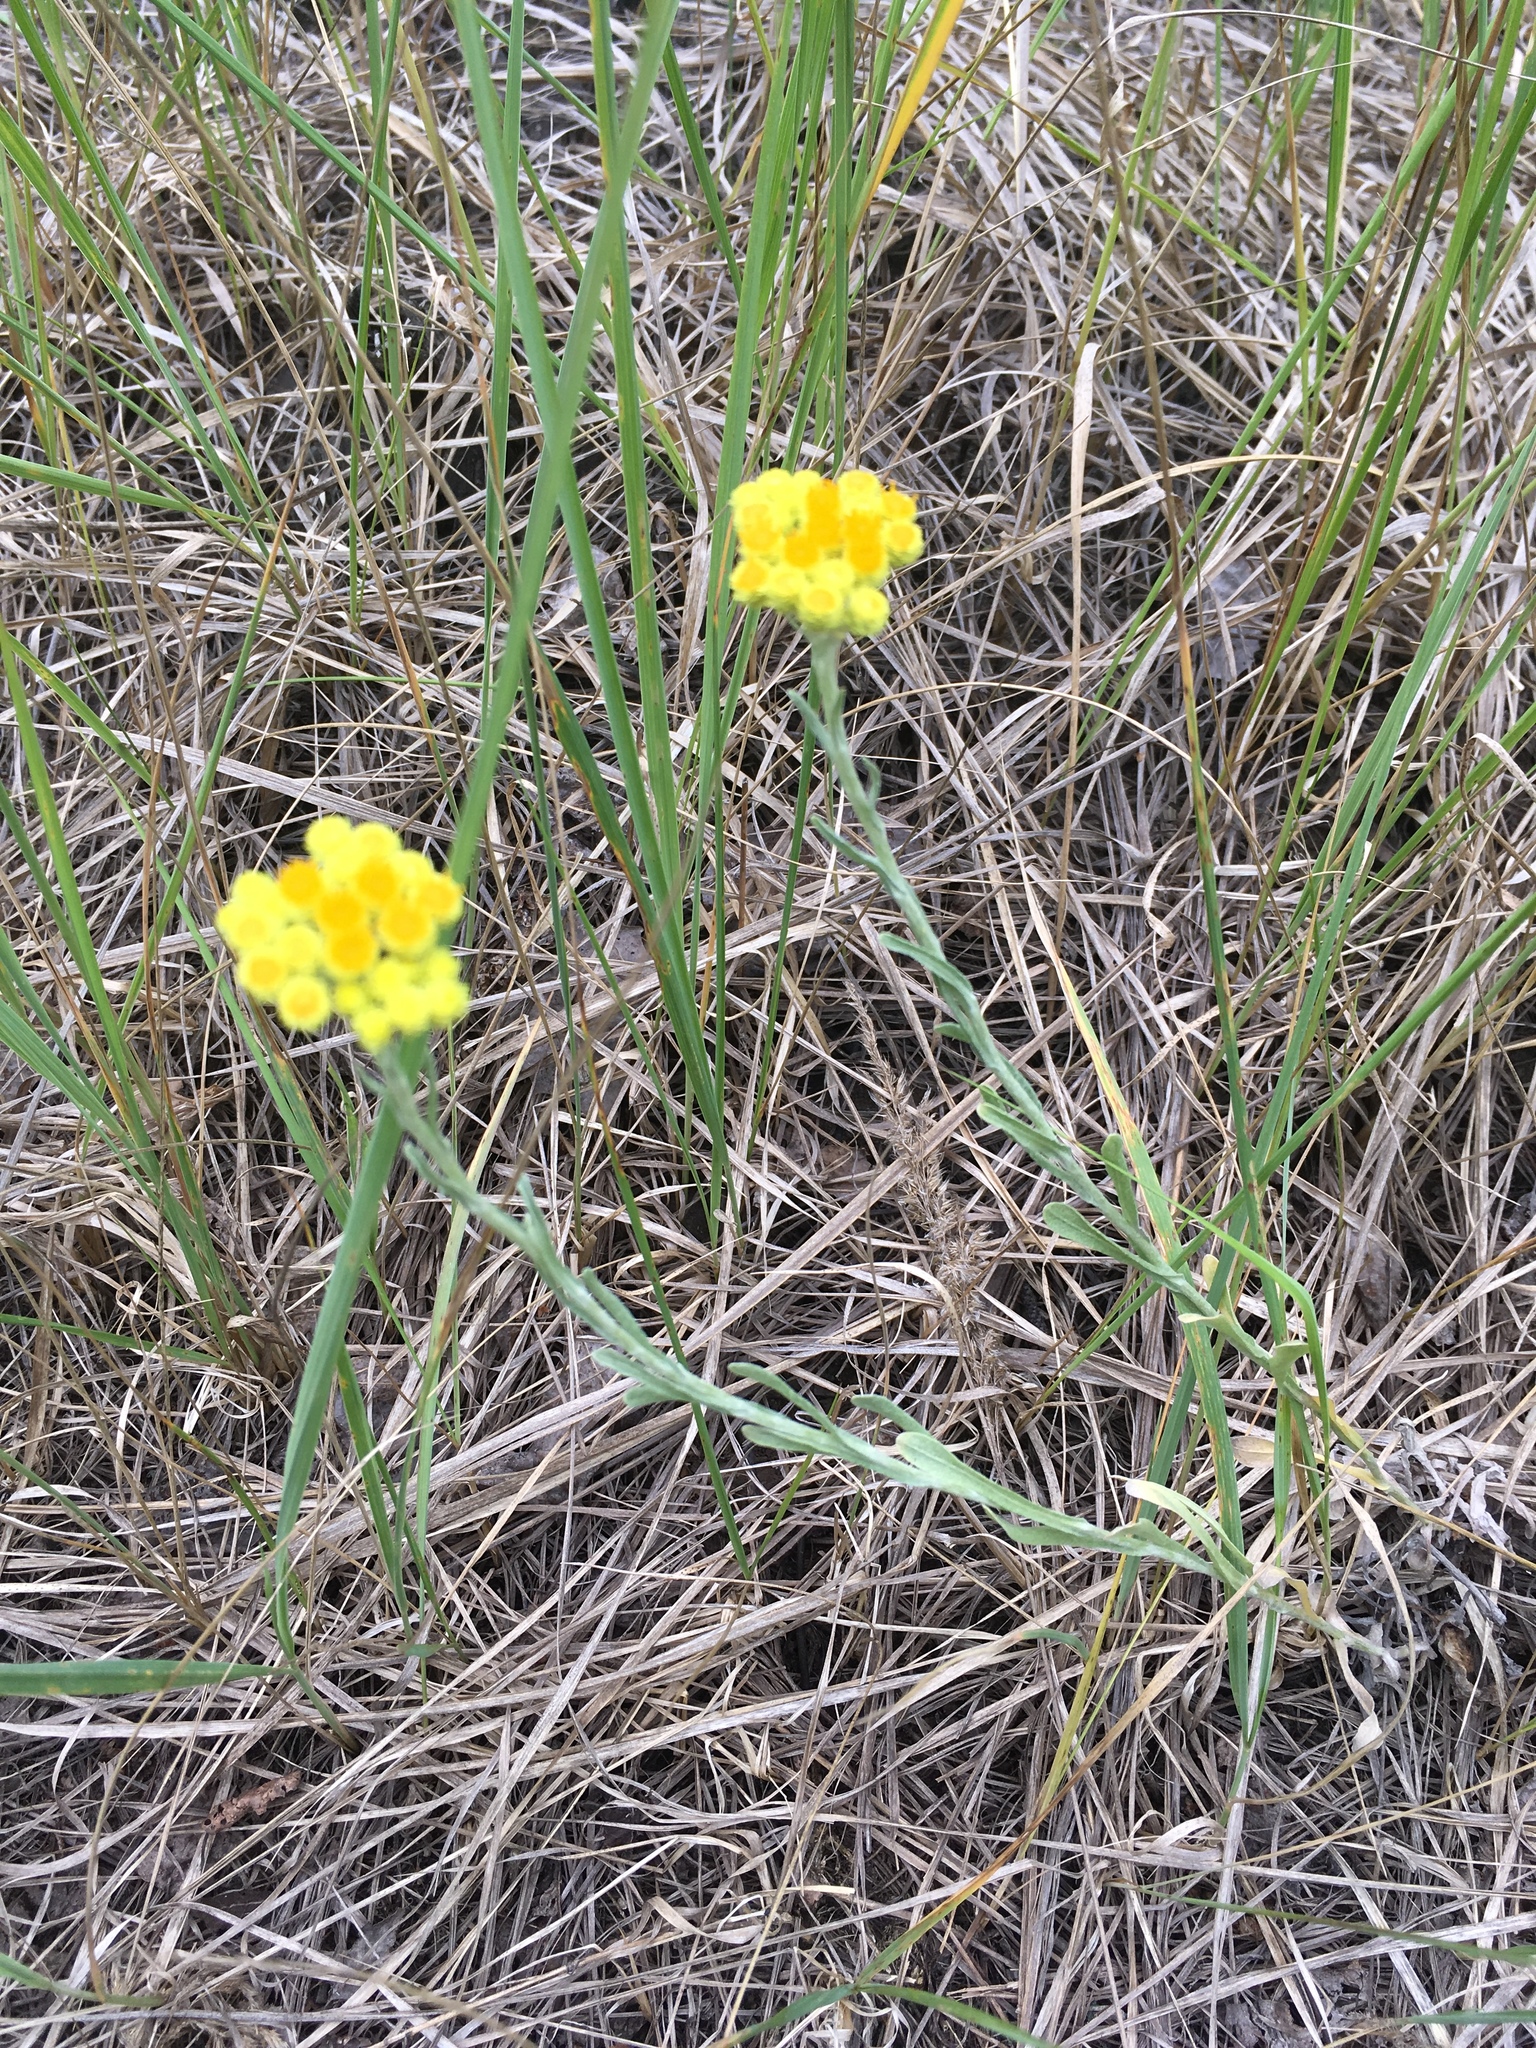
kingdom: Plantae
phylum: Tracheophyta
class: Magnoliopsida
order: Asterales
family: Asteraceae
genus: Helichrysum
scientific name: Helichrysum arenarium
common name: Strawflower
